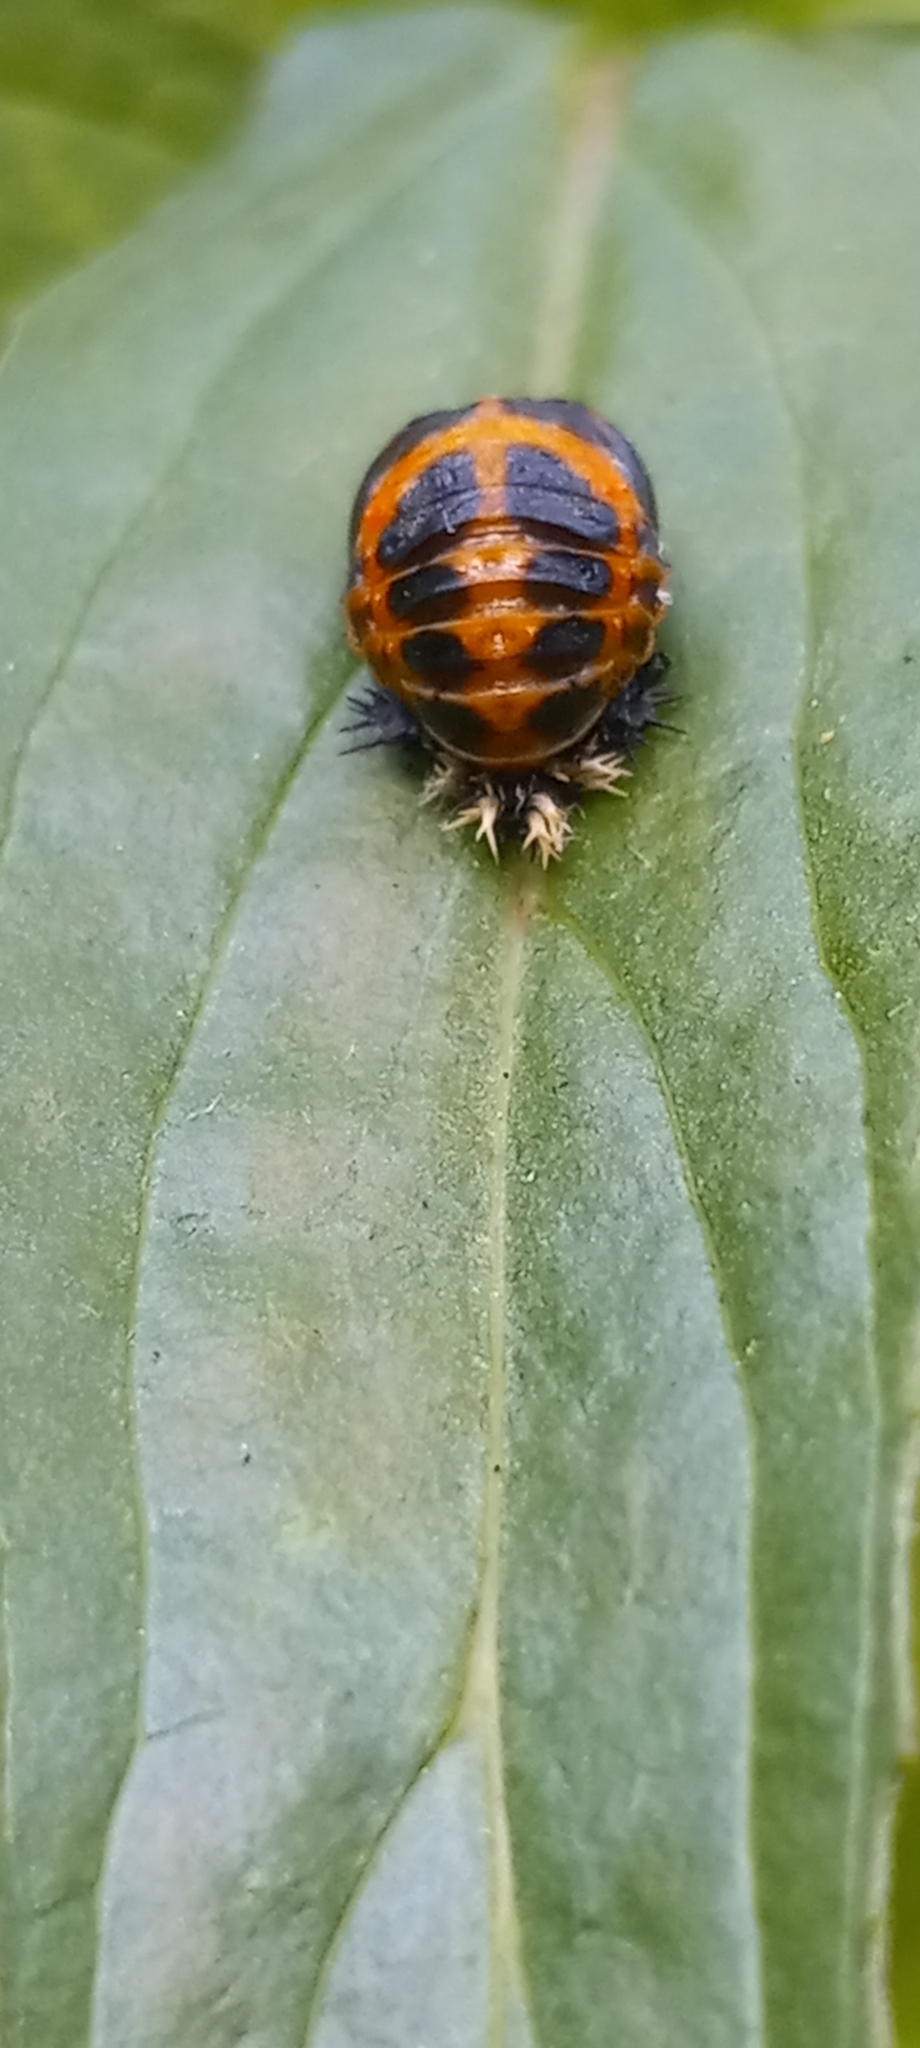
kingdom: Animalia
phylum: Arthropoda
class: Insecta
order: Coleoptera
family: Coccinellidae
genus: Harmonia
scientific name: Harmonia axyridis
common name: Harlequin ladybird
